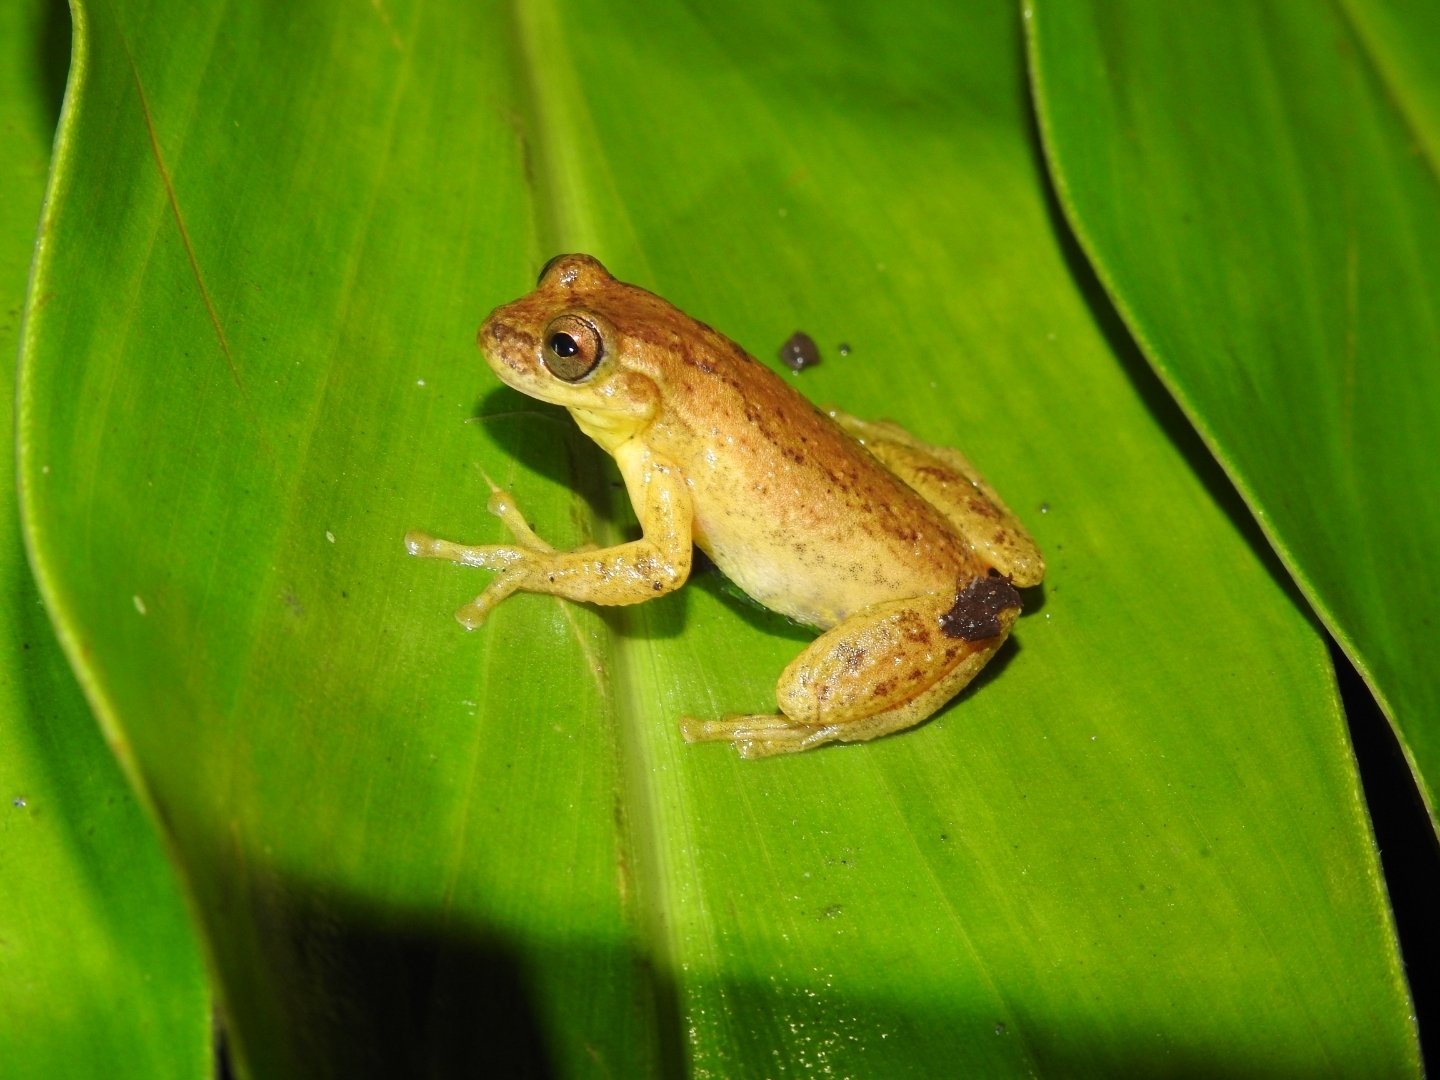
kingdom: Animalia
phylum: Chordata
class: Amphibia
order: Anura
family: Hylidae
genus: Dendropsophus
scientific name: Dendropsophus columbianus
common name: Boettger's colombian treefrog
